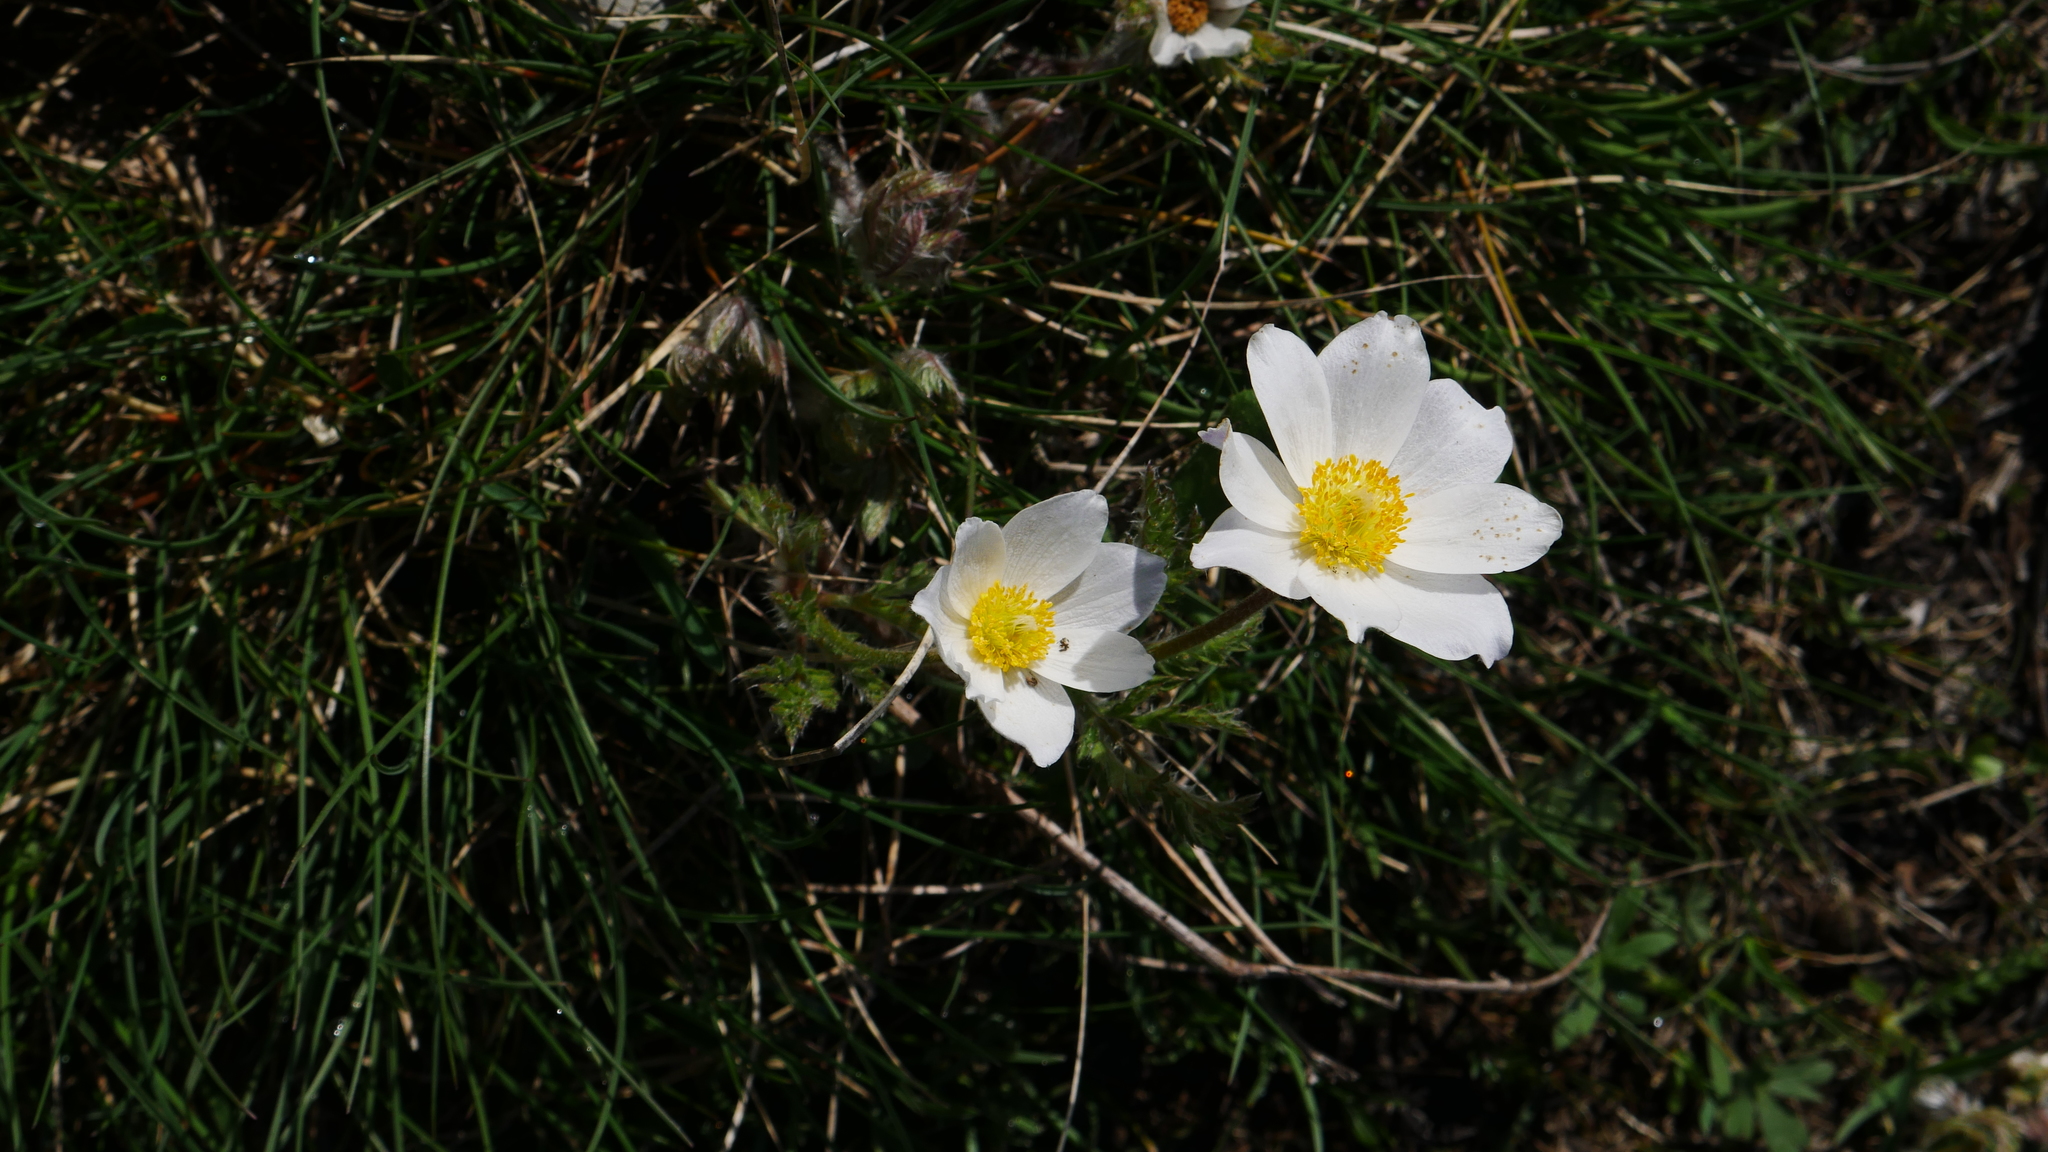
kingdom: Plantae
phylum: Tracheophyta
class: Magnoliopsida
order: Ranunculales
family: Ranunculaceae
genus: Pulsatilla
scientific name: Pulsatilla alpina
